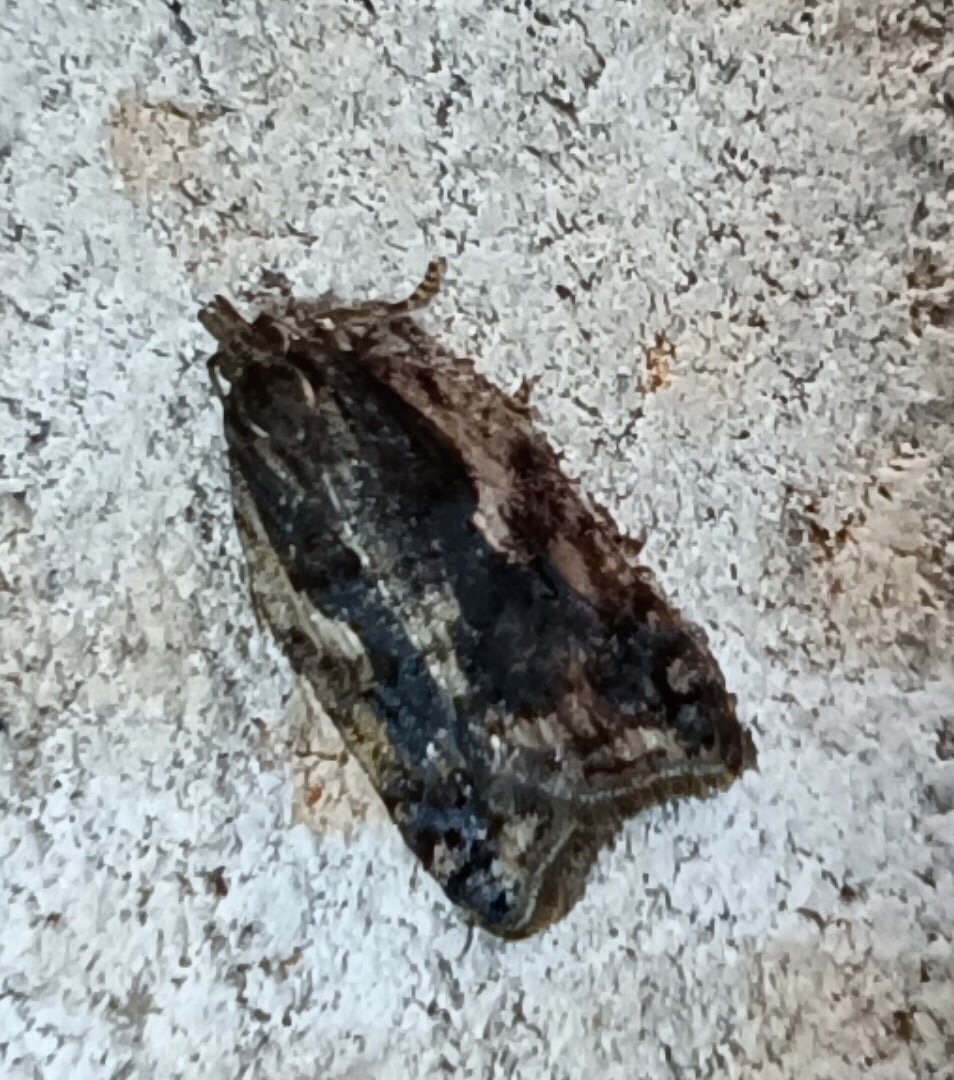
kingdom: Animalia
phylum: Arthropoda
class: Insecta
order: Lepidoptera
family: Tortricidae
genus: Acleris
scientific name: Acleris umbrana
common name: Dark-streaked button
